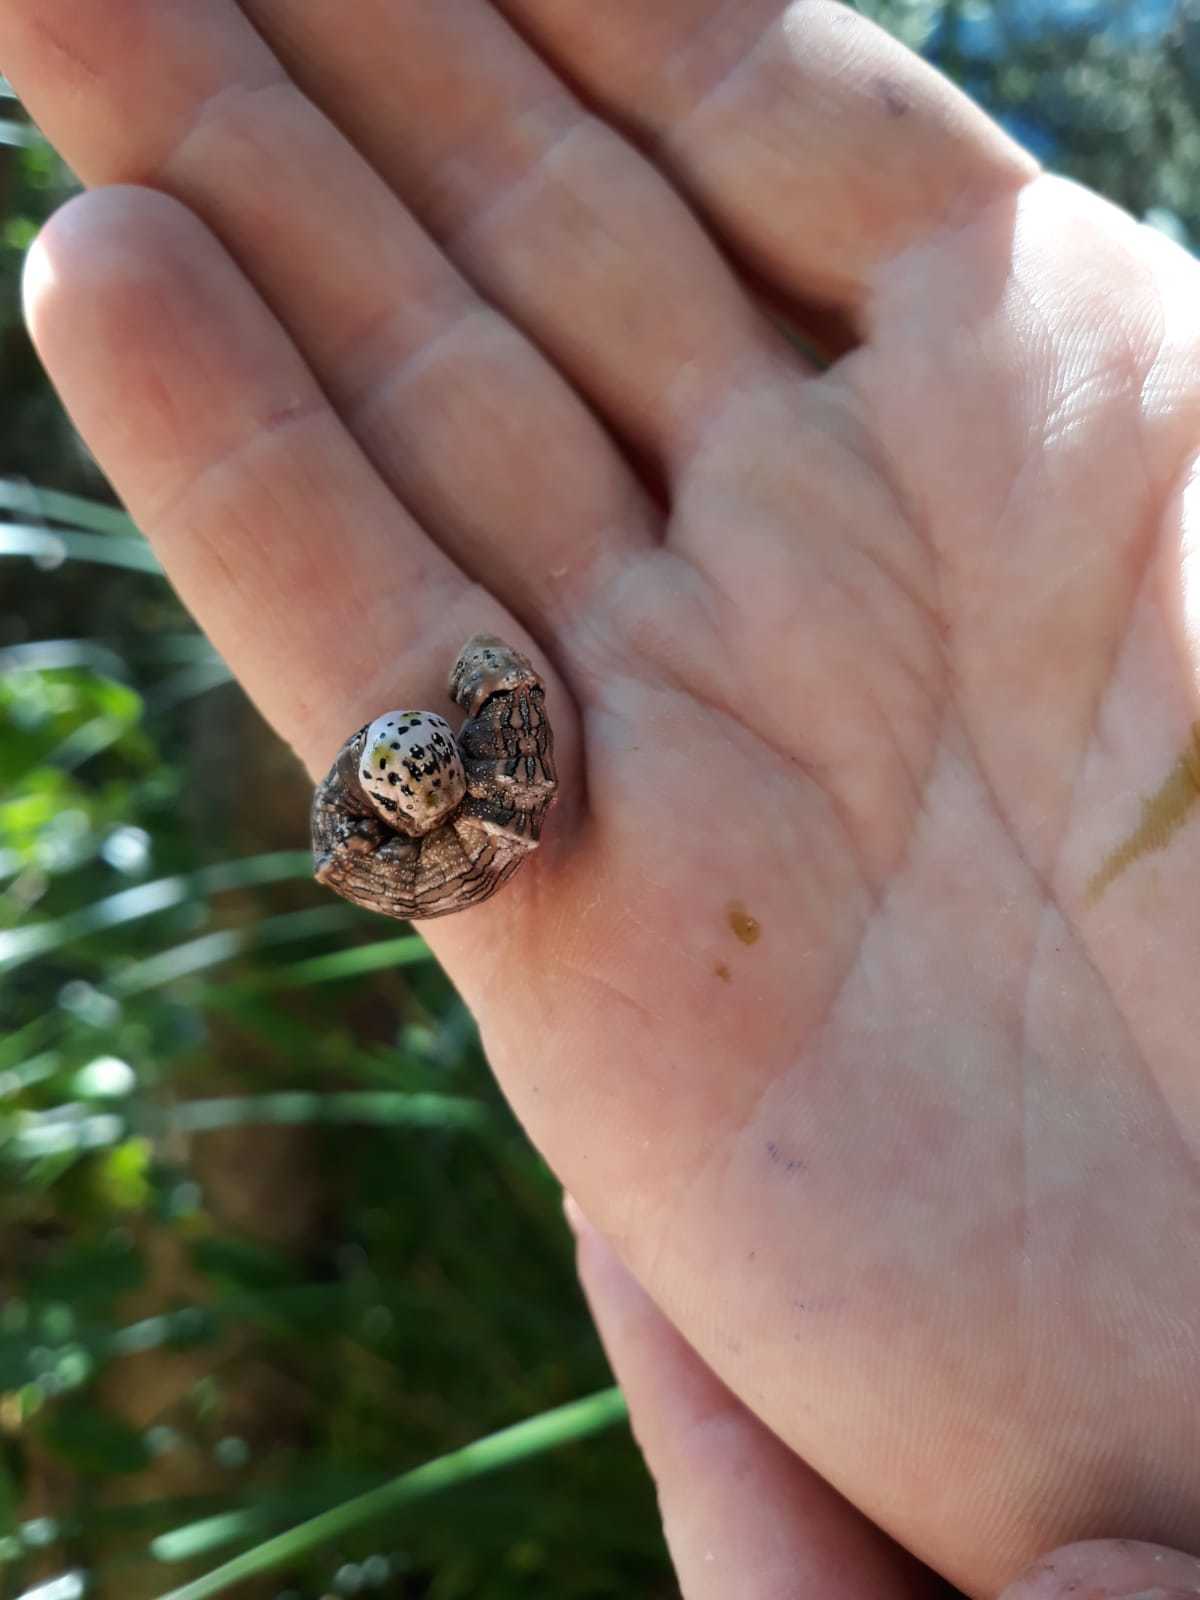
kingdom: Animalia
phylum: Arthropoda
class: Insecta
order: Lepidoptera
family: Geometridae
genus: Declana
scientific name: Declana
